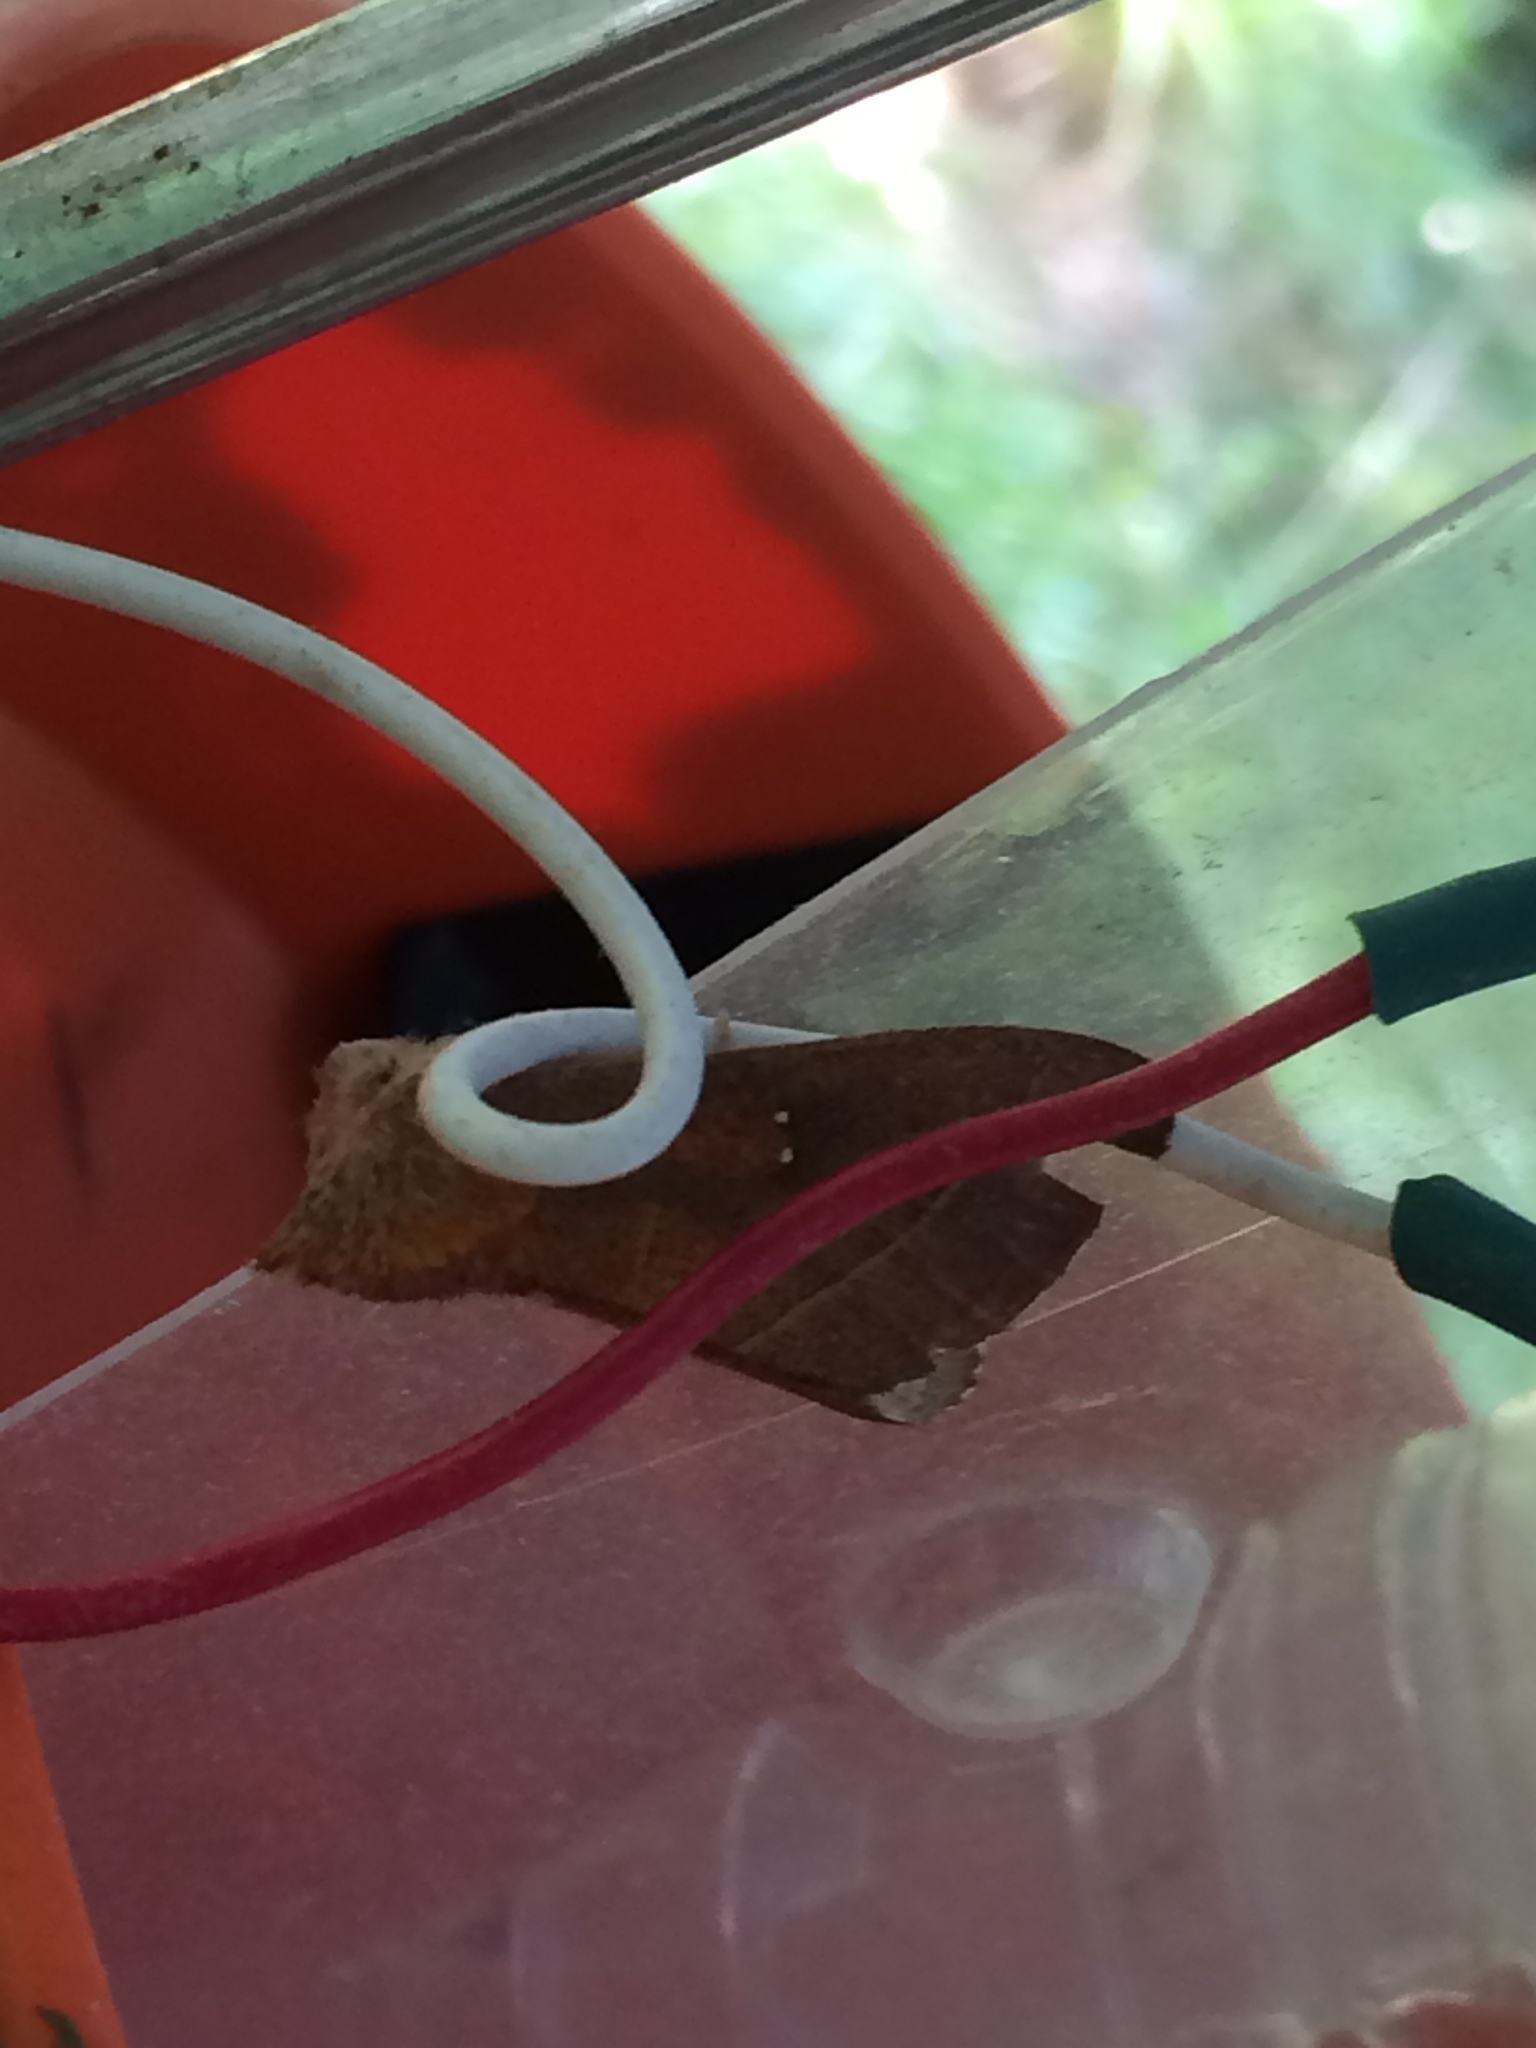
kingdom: Animalia
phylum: Arthropoda
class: Insecta
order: Lepidoptera
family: Notodontidae
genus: Nadata
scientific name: Nadata gibbosa
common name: White-dotted prominent
